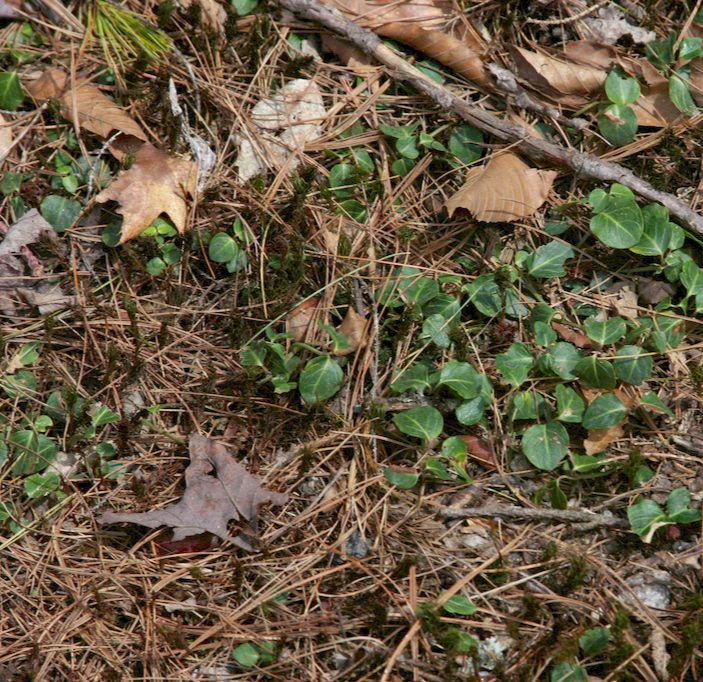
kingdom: Plantae
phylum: Tracheophyta
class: Magnoliopsida
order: Gentianales
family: Rubiaceae
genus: Mitchella
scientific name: Mitchella repens
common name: Partridge-berry
